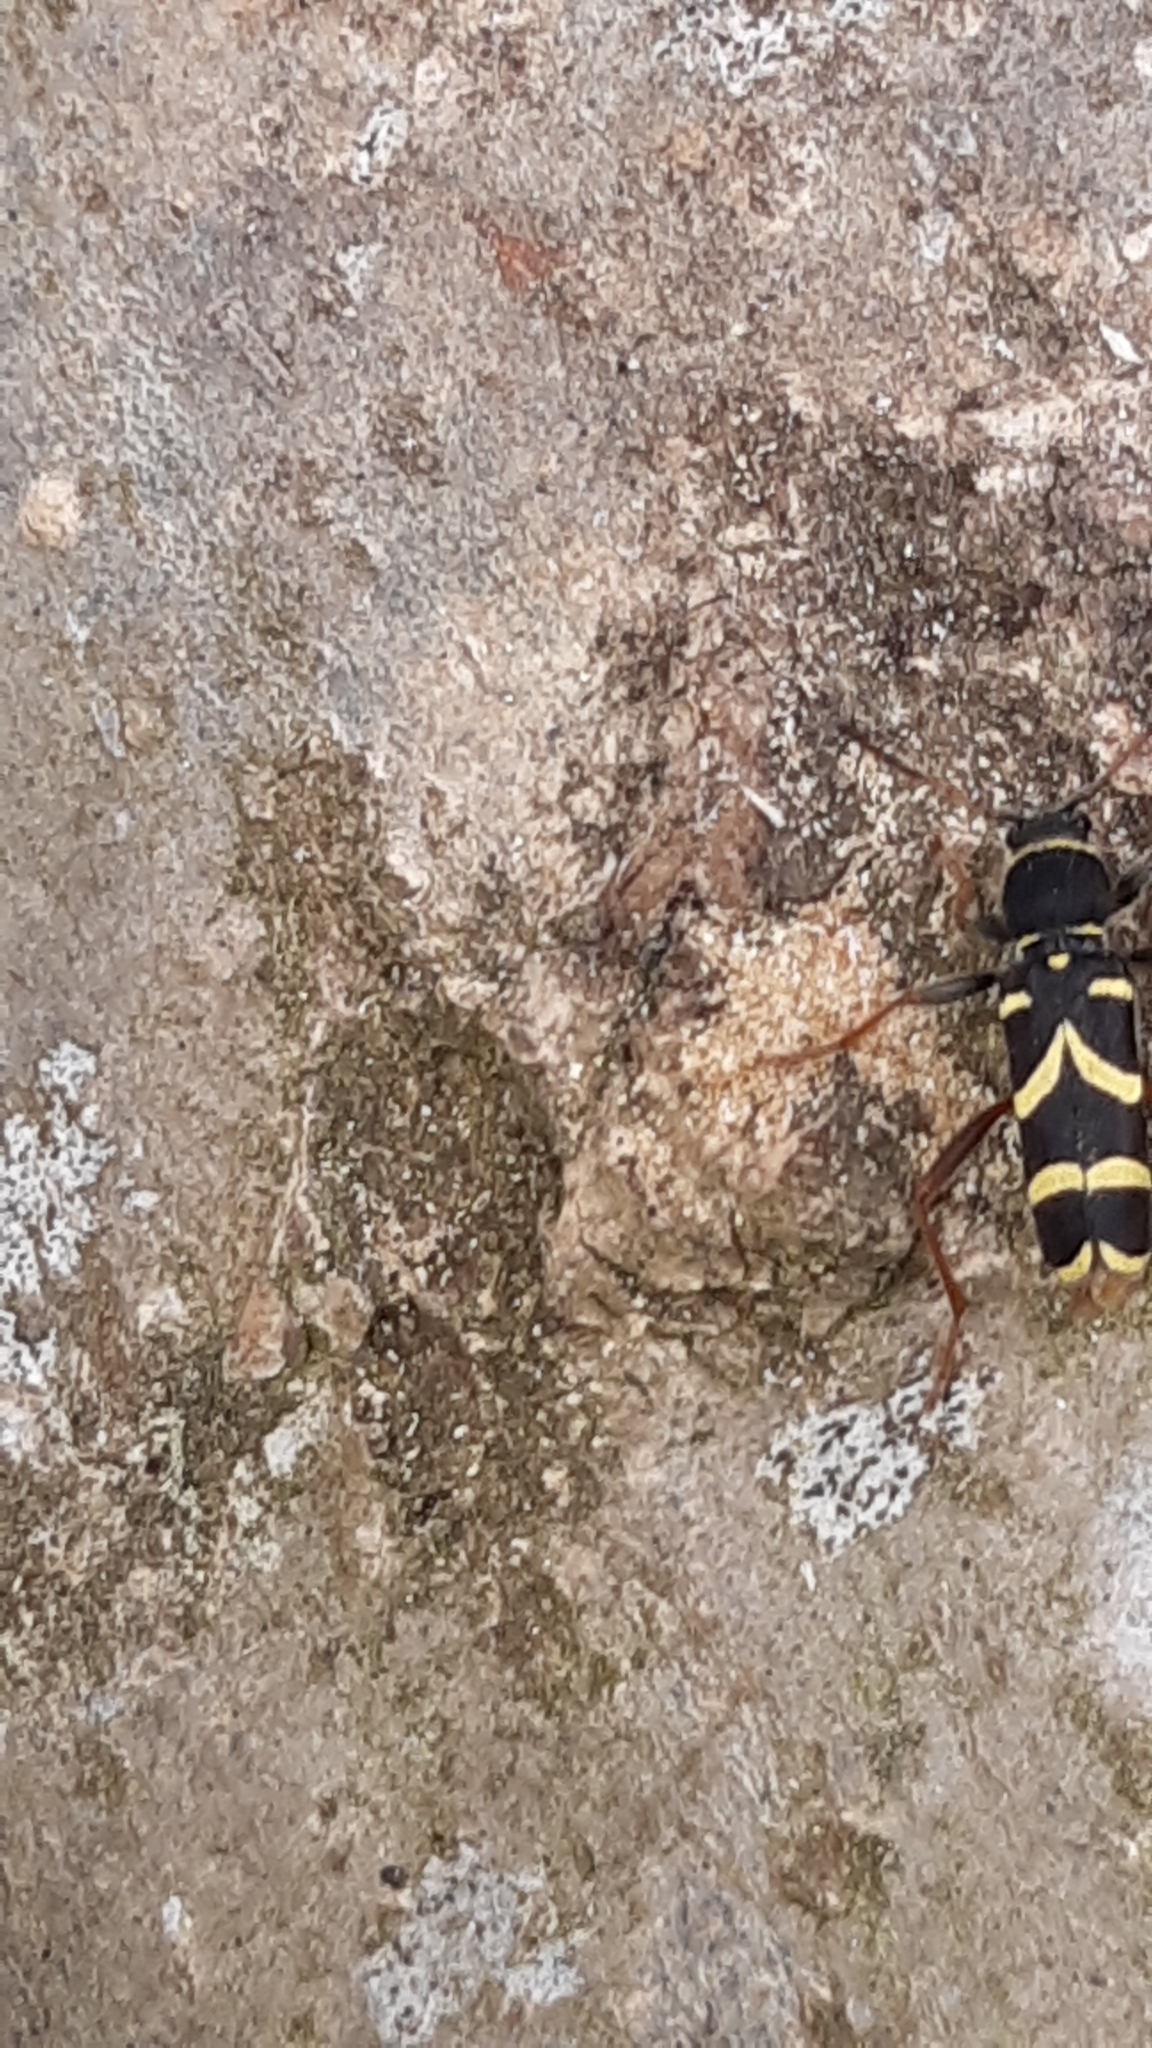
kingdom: Animalia
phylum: Arthropoda
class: Insecta
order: Coleoptera
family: Cerambycidae
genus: Clytus
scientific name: Clytus arietis
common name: Wasp beetle
